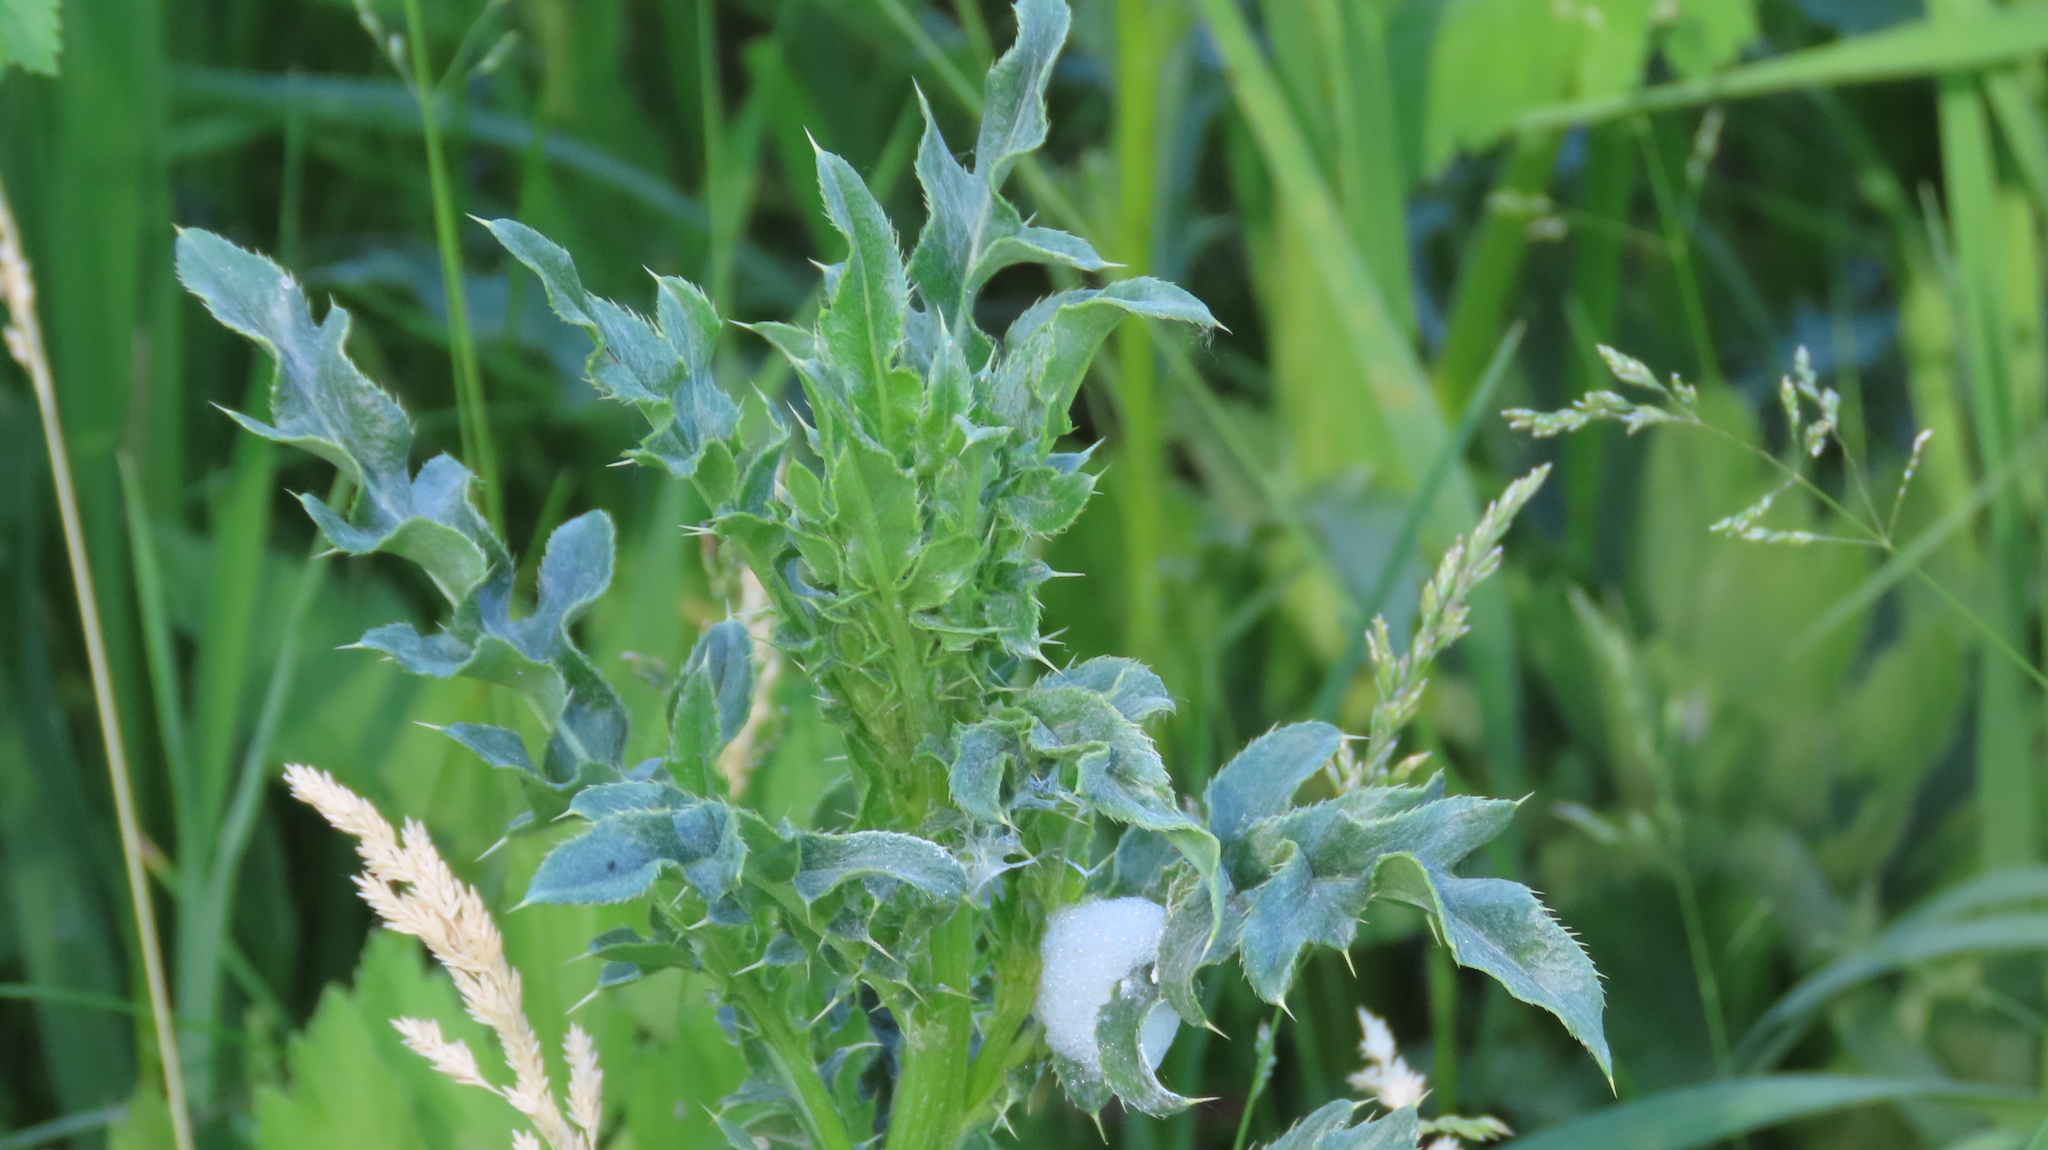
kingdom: Plantae
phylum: Tracheophyta
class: Magnoliopsida
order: Asterales
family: Asteraceae
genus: Cirsium
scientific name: Cirsium arvense
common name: Creeping thistle
